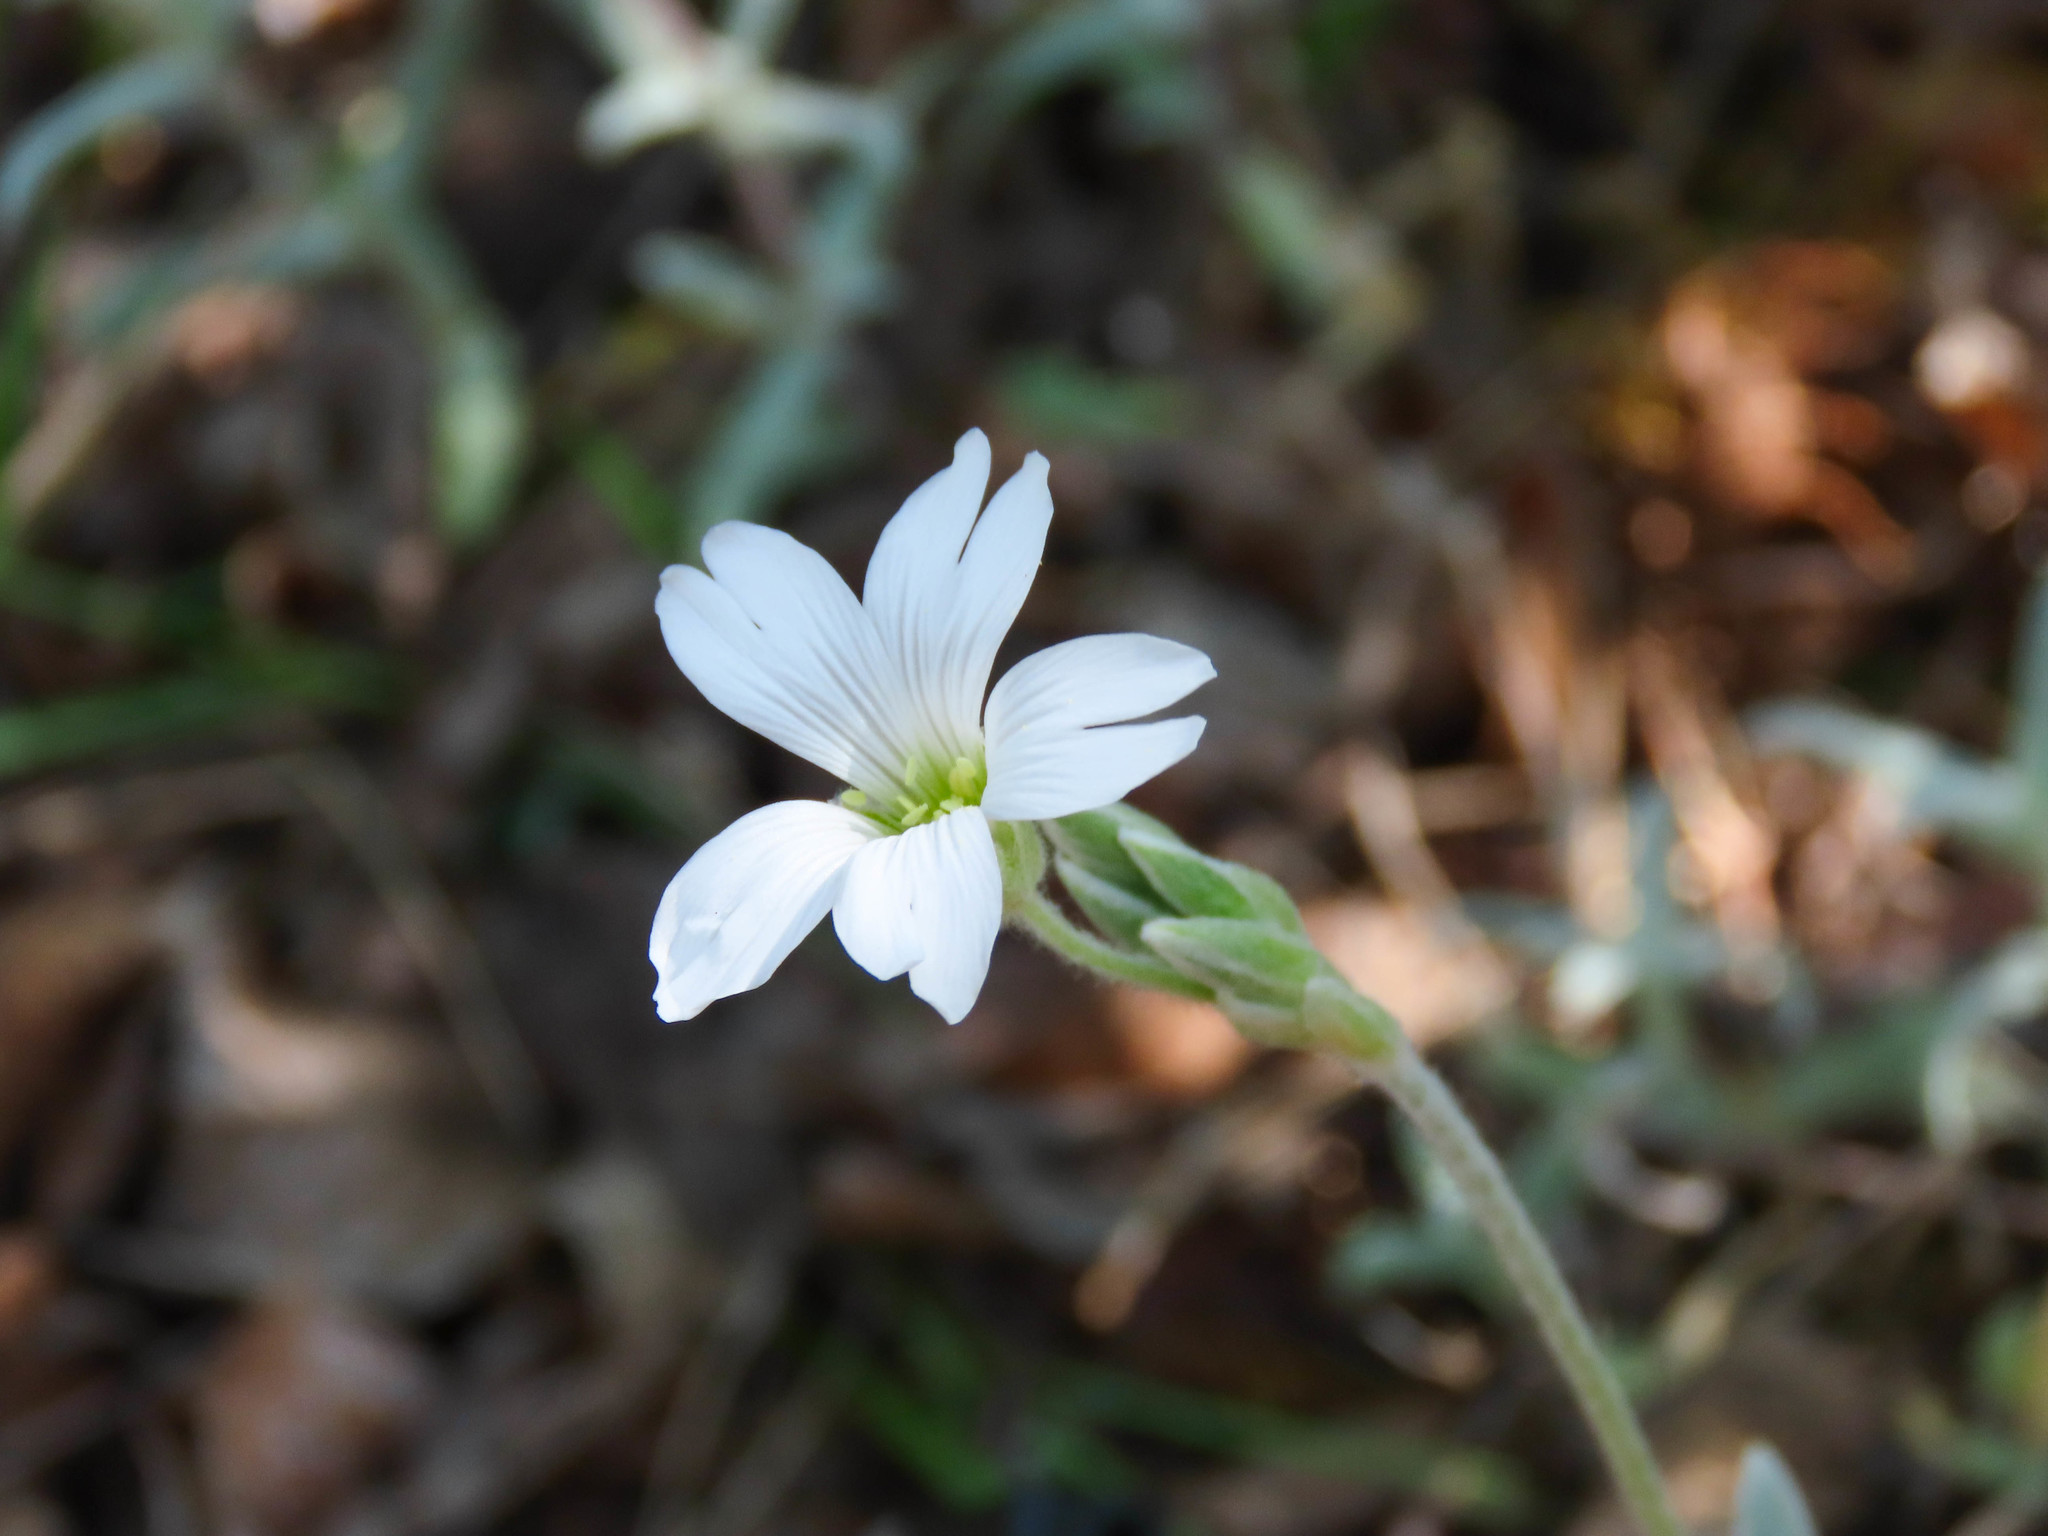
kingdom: Plantae
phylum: Tracheophyta
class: Magnoliopsida
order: Caryophyllales
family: Caryophyllaceae
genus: Cerastium
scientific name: Cerastium tomentosum
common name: Snow-in-summer
